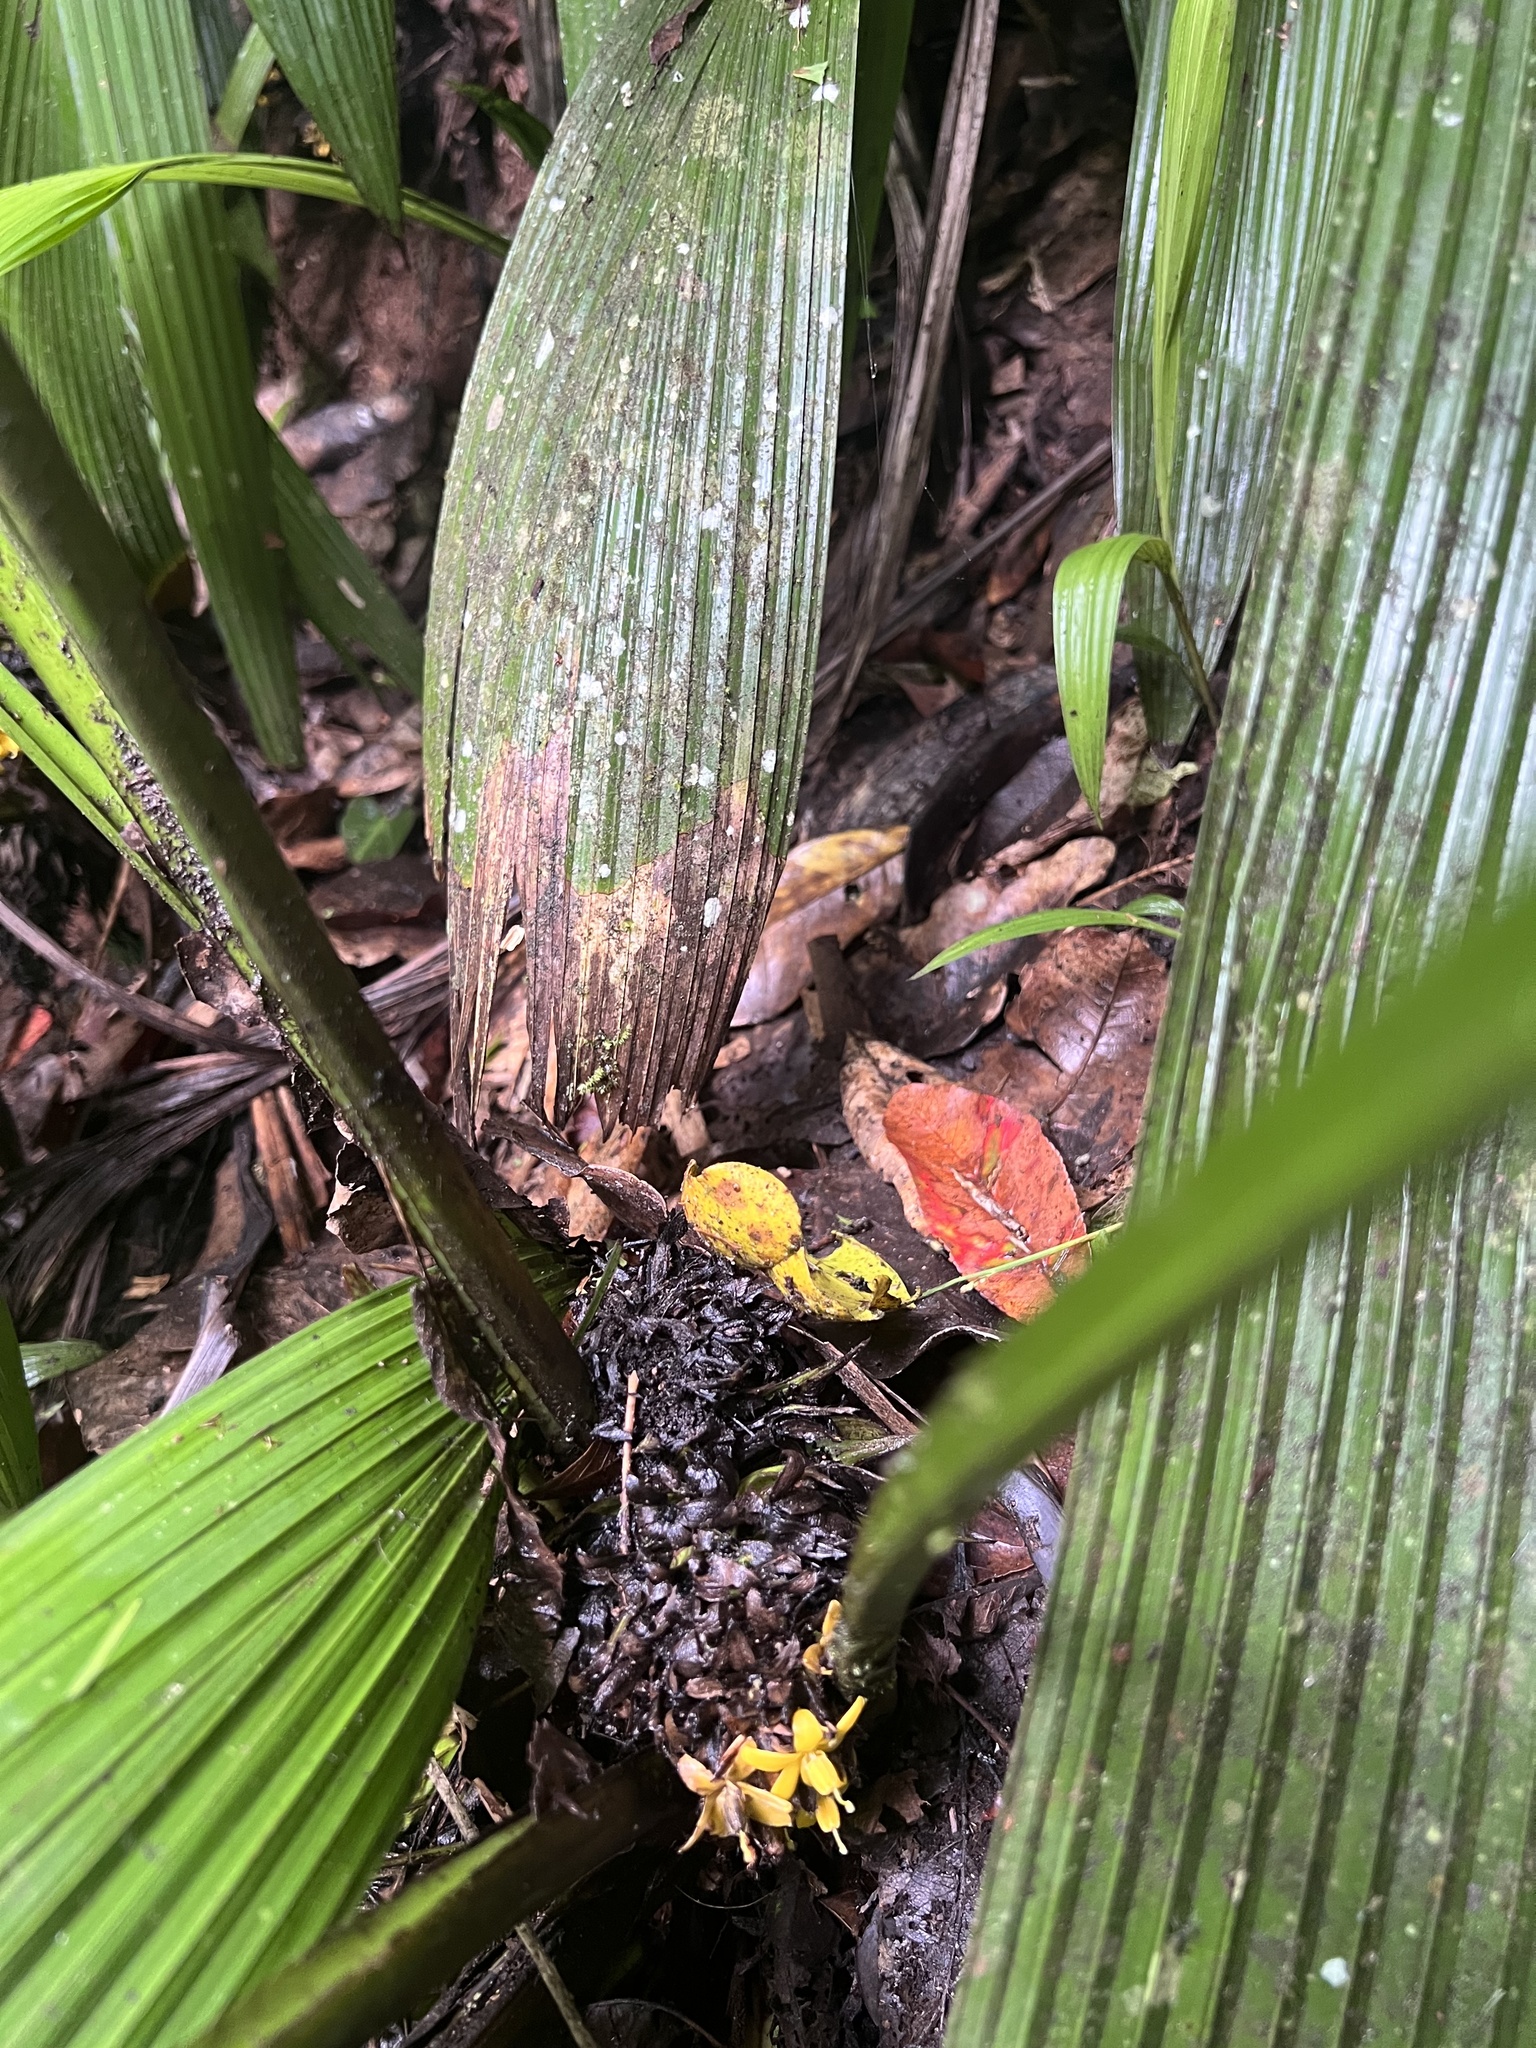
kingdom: Plantae
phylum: Tracheophyta
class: Liliopsida
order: Asparagales
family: Hypoxidaceae
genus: Curculigo
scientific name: Curculigo capitulata
